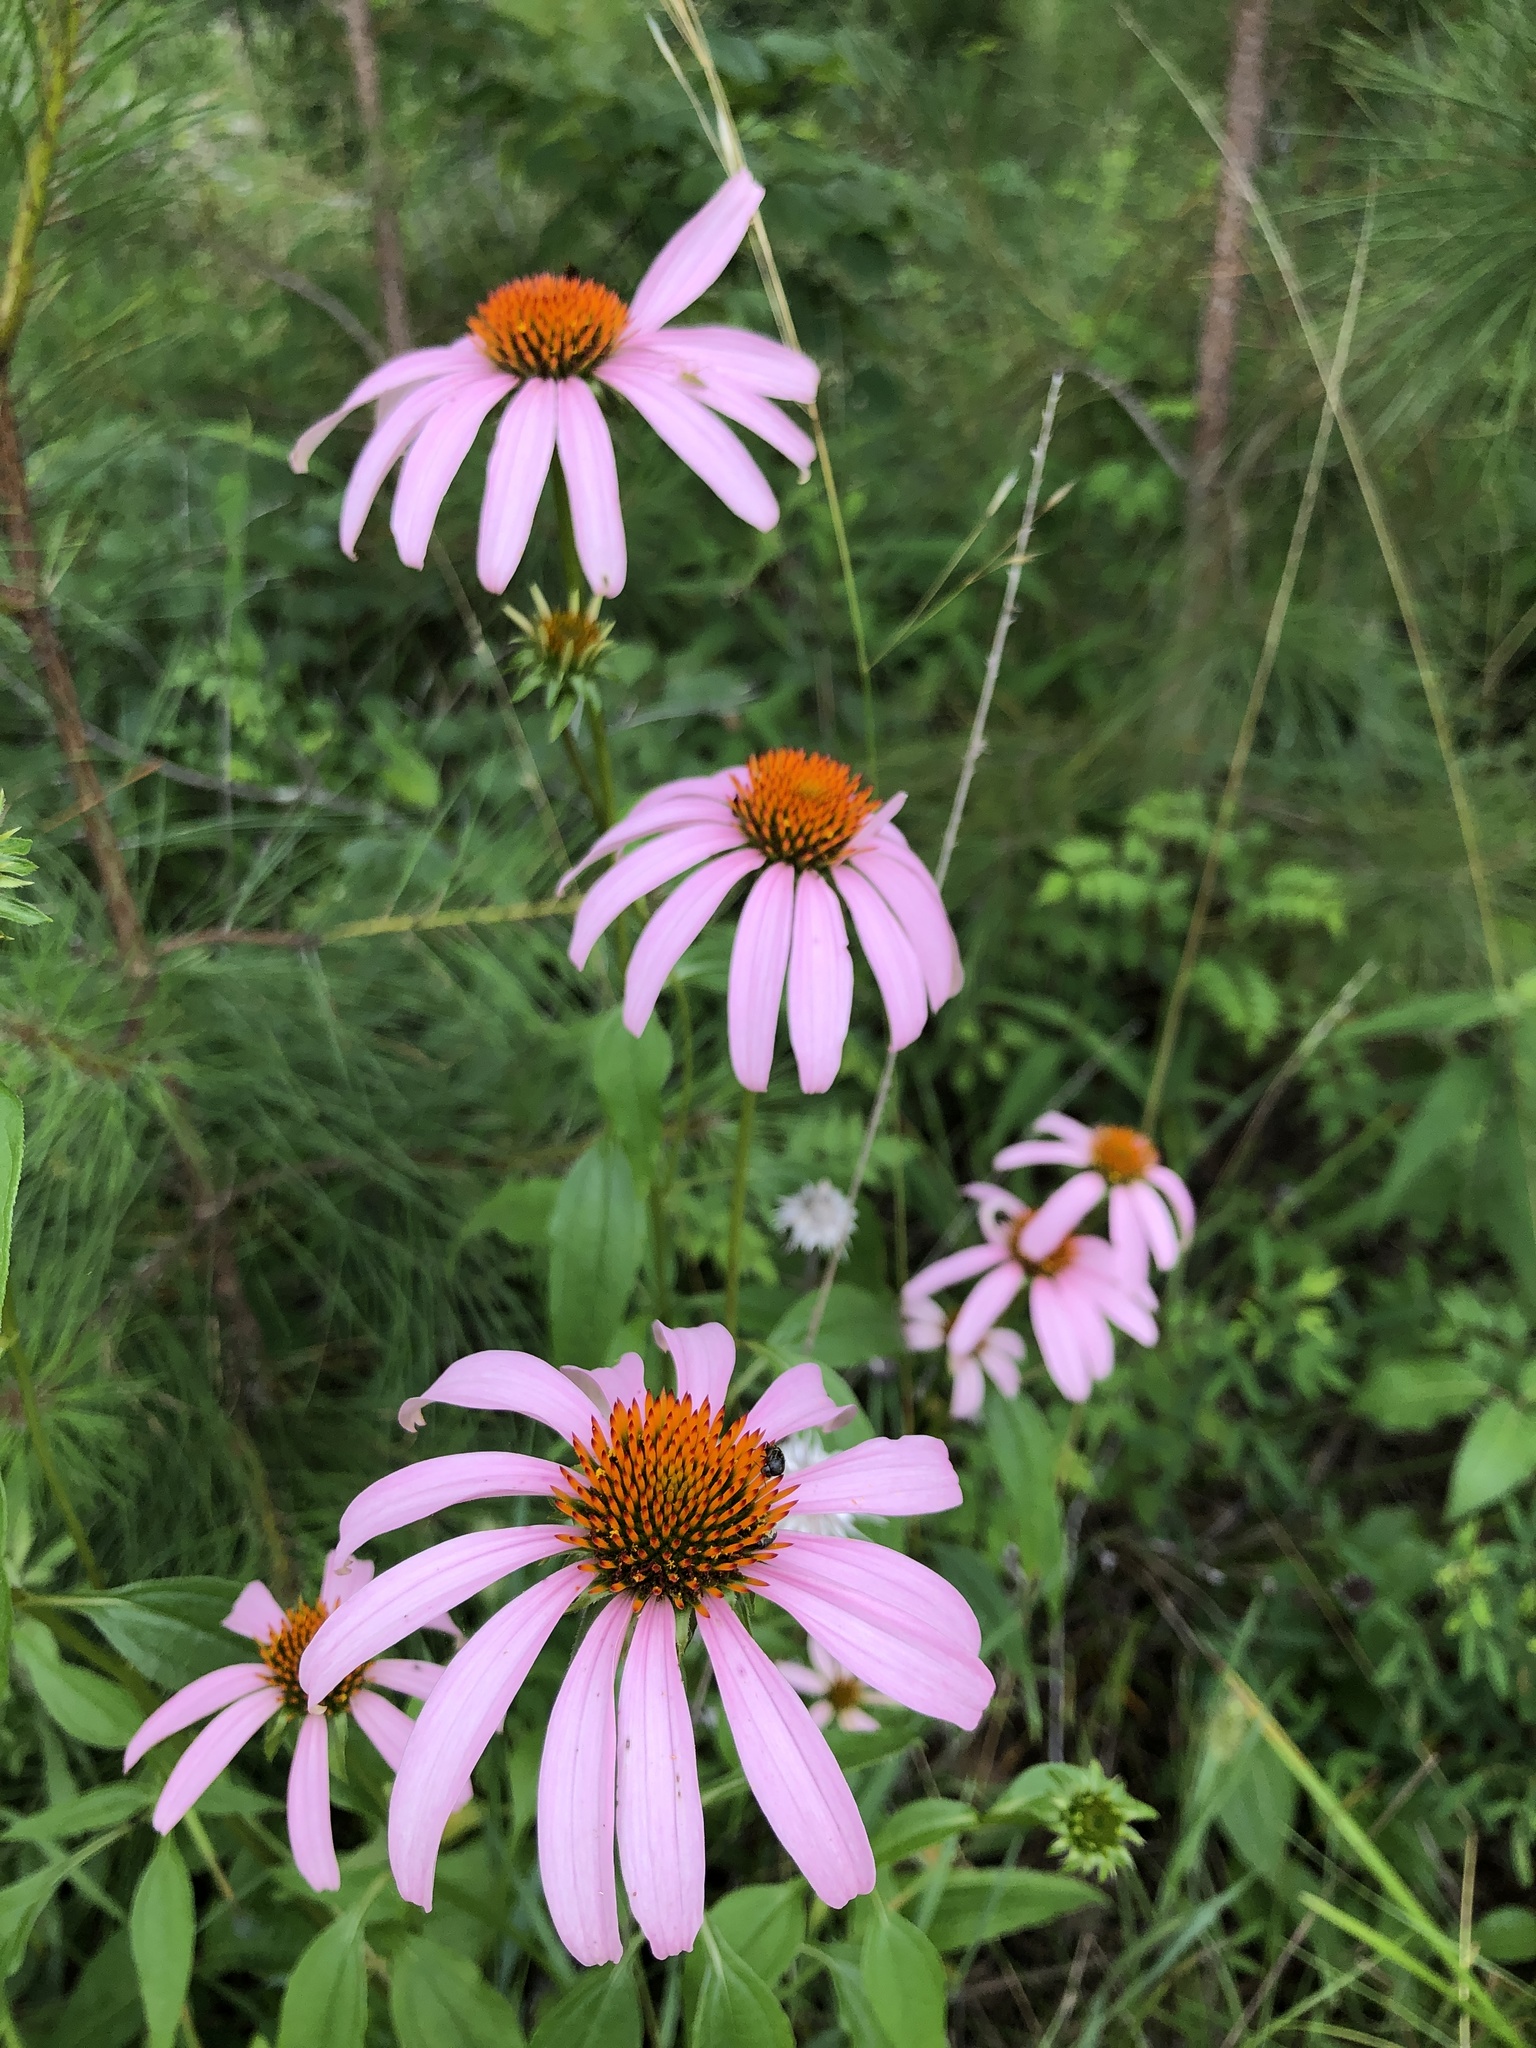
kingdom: Plantae
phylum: Tracheophyta
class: Magnoliopsida
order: Asterales
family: Asteraceae
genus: Echinacea
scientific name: Echinacea purpurea
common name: Broad-leaved purple coneflower
